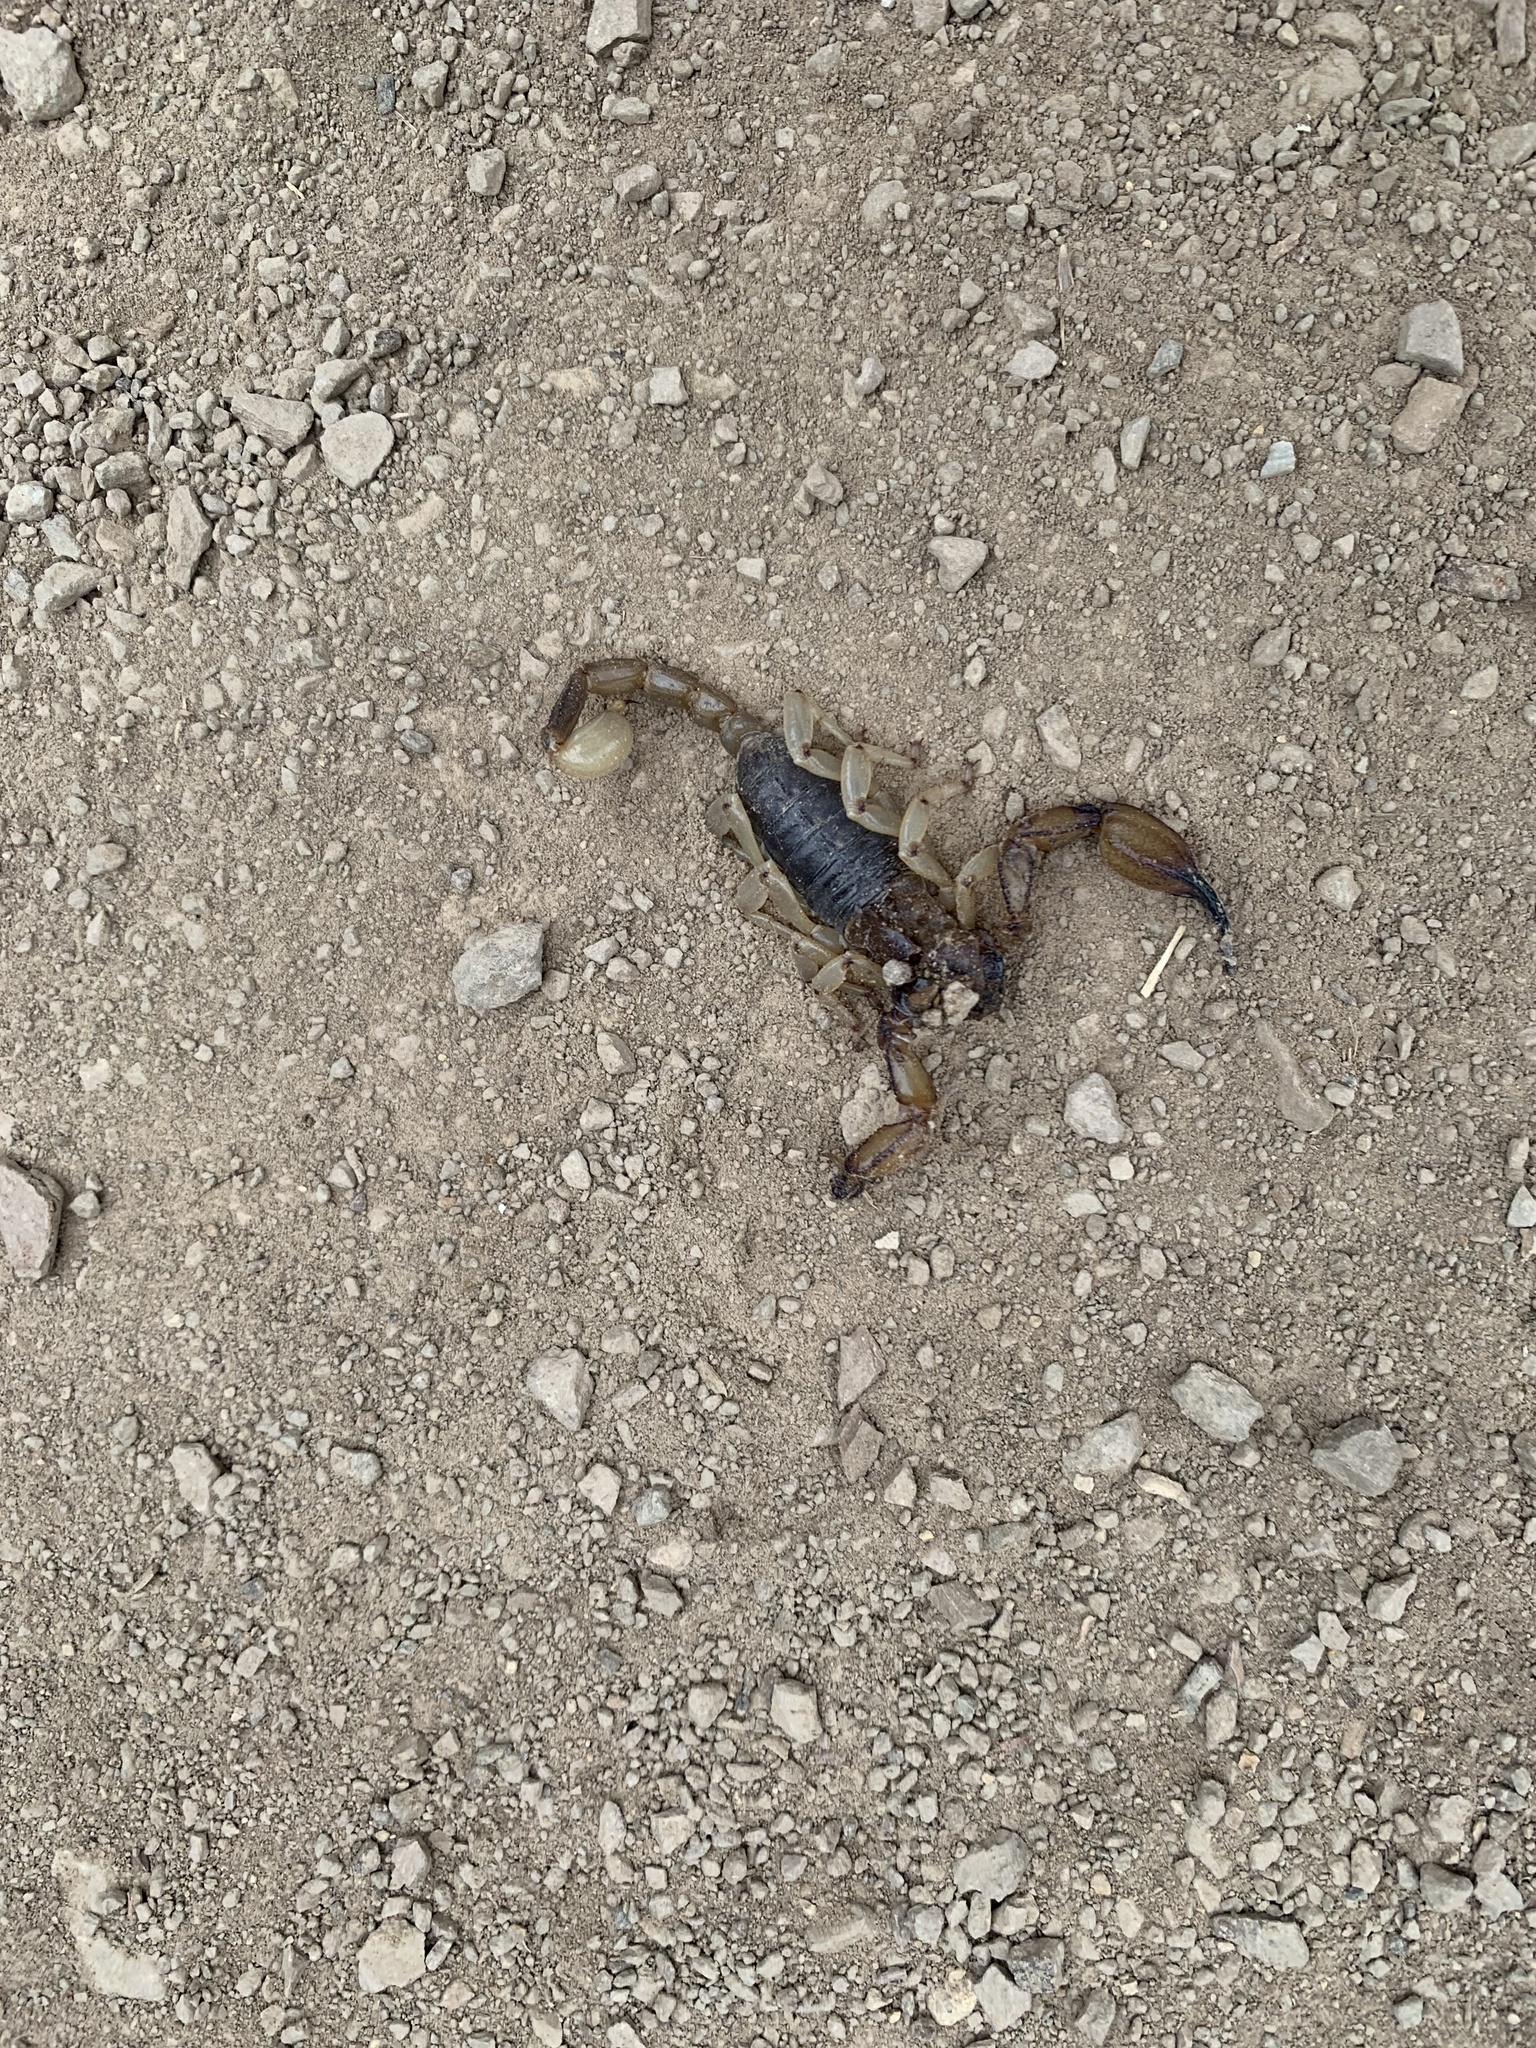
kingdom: Animalia
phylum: Arthropoda
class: Arachnida
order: Scorpiones
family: Chactidae
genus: Anuroctonus
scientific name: Anuroctonus pococki
